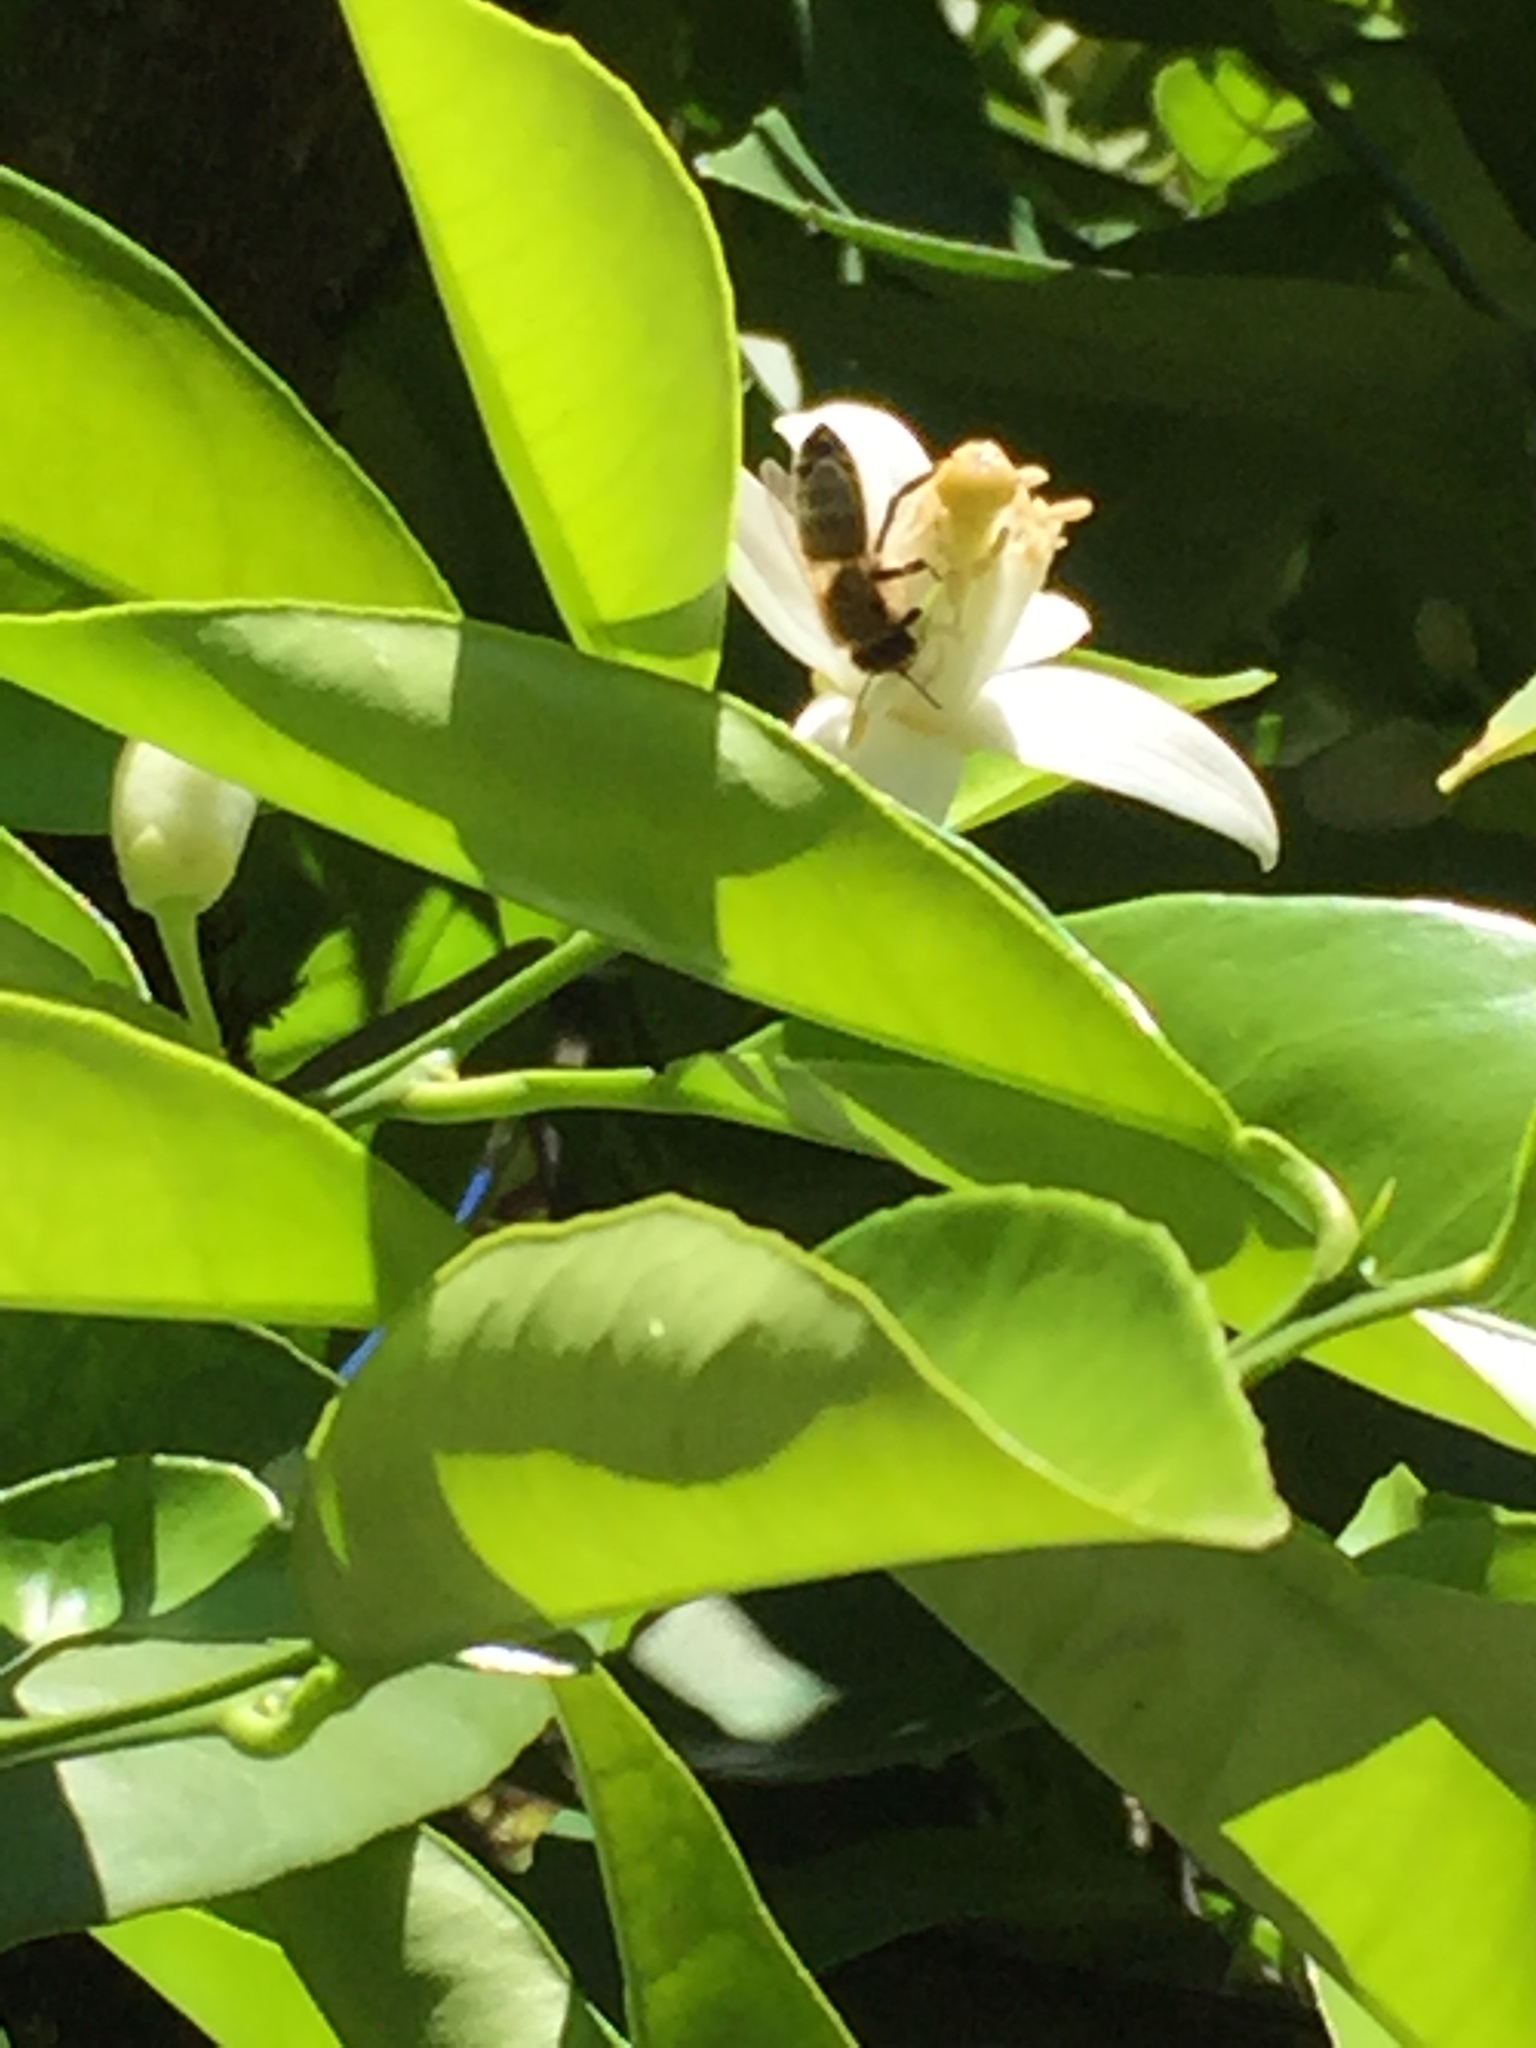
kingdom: Animalia
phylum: Arthropoda
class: Insecta
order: Hymenoptera
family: Apidae
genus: Apis
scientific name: Apis mellifera
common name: Honey bee
